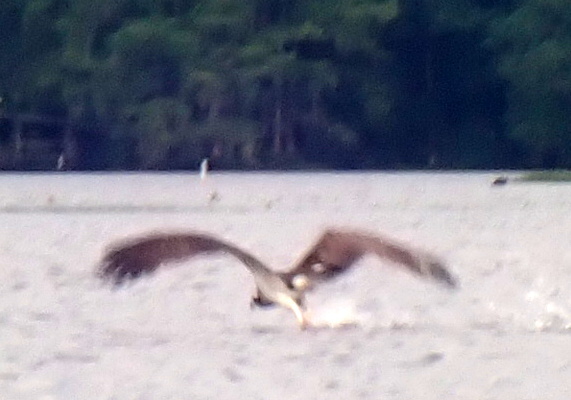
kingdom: Animalia
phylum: Chordata
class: Aves
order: Accipitriformes
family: Pandionidae
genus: Pandion
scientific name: Pandion haliaetus
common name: Osprey
